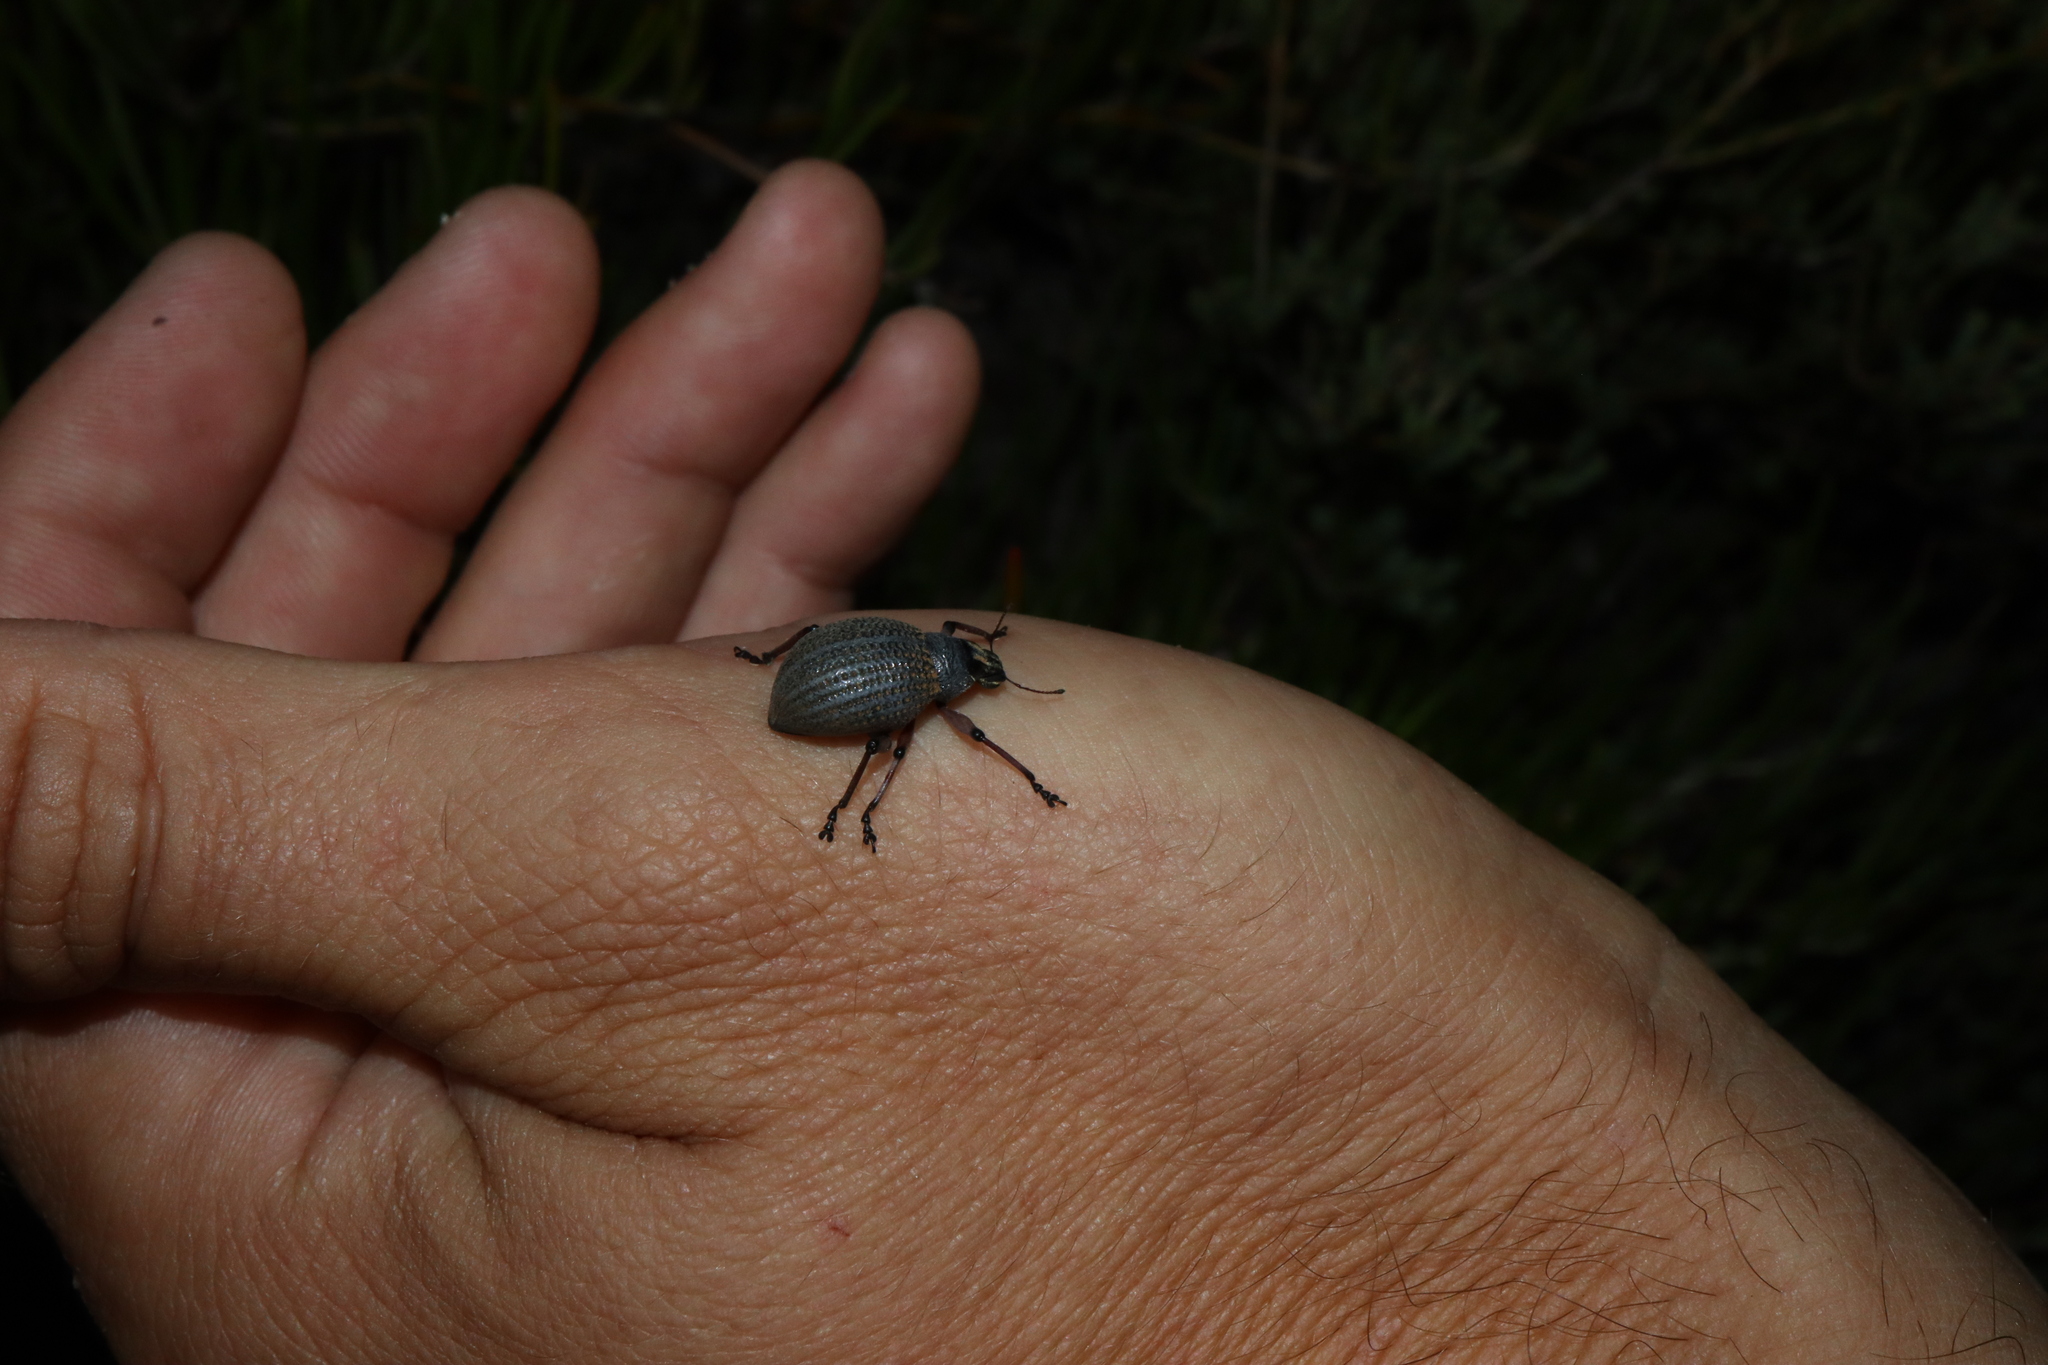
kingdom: Animalia
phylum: Arthropoda
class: Insecta
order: Coleoptera
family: Curculionidae
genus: Catasarcus
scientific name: Catasarcus carinaticeps
